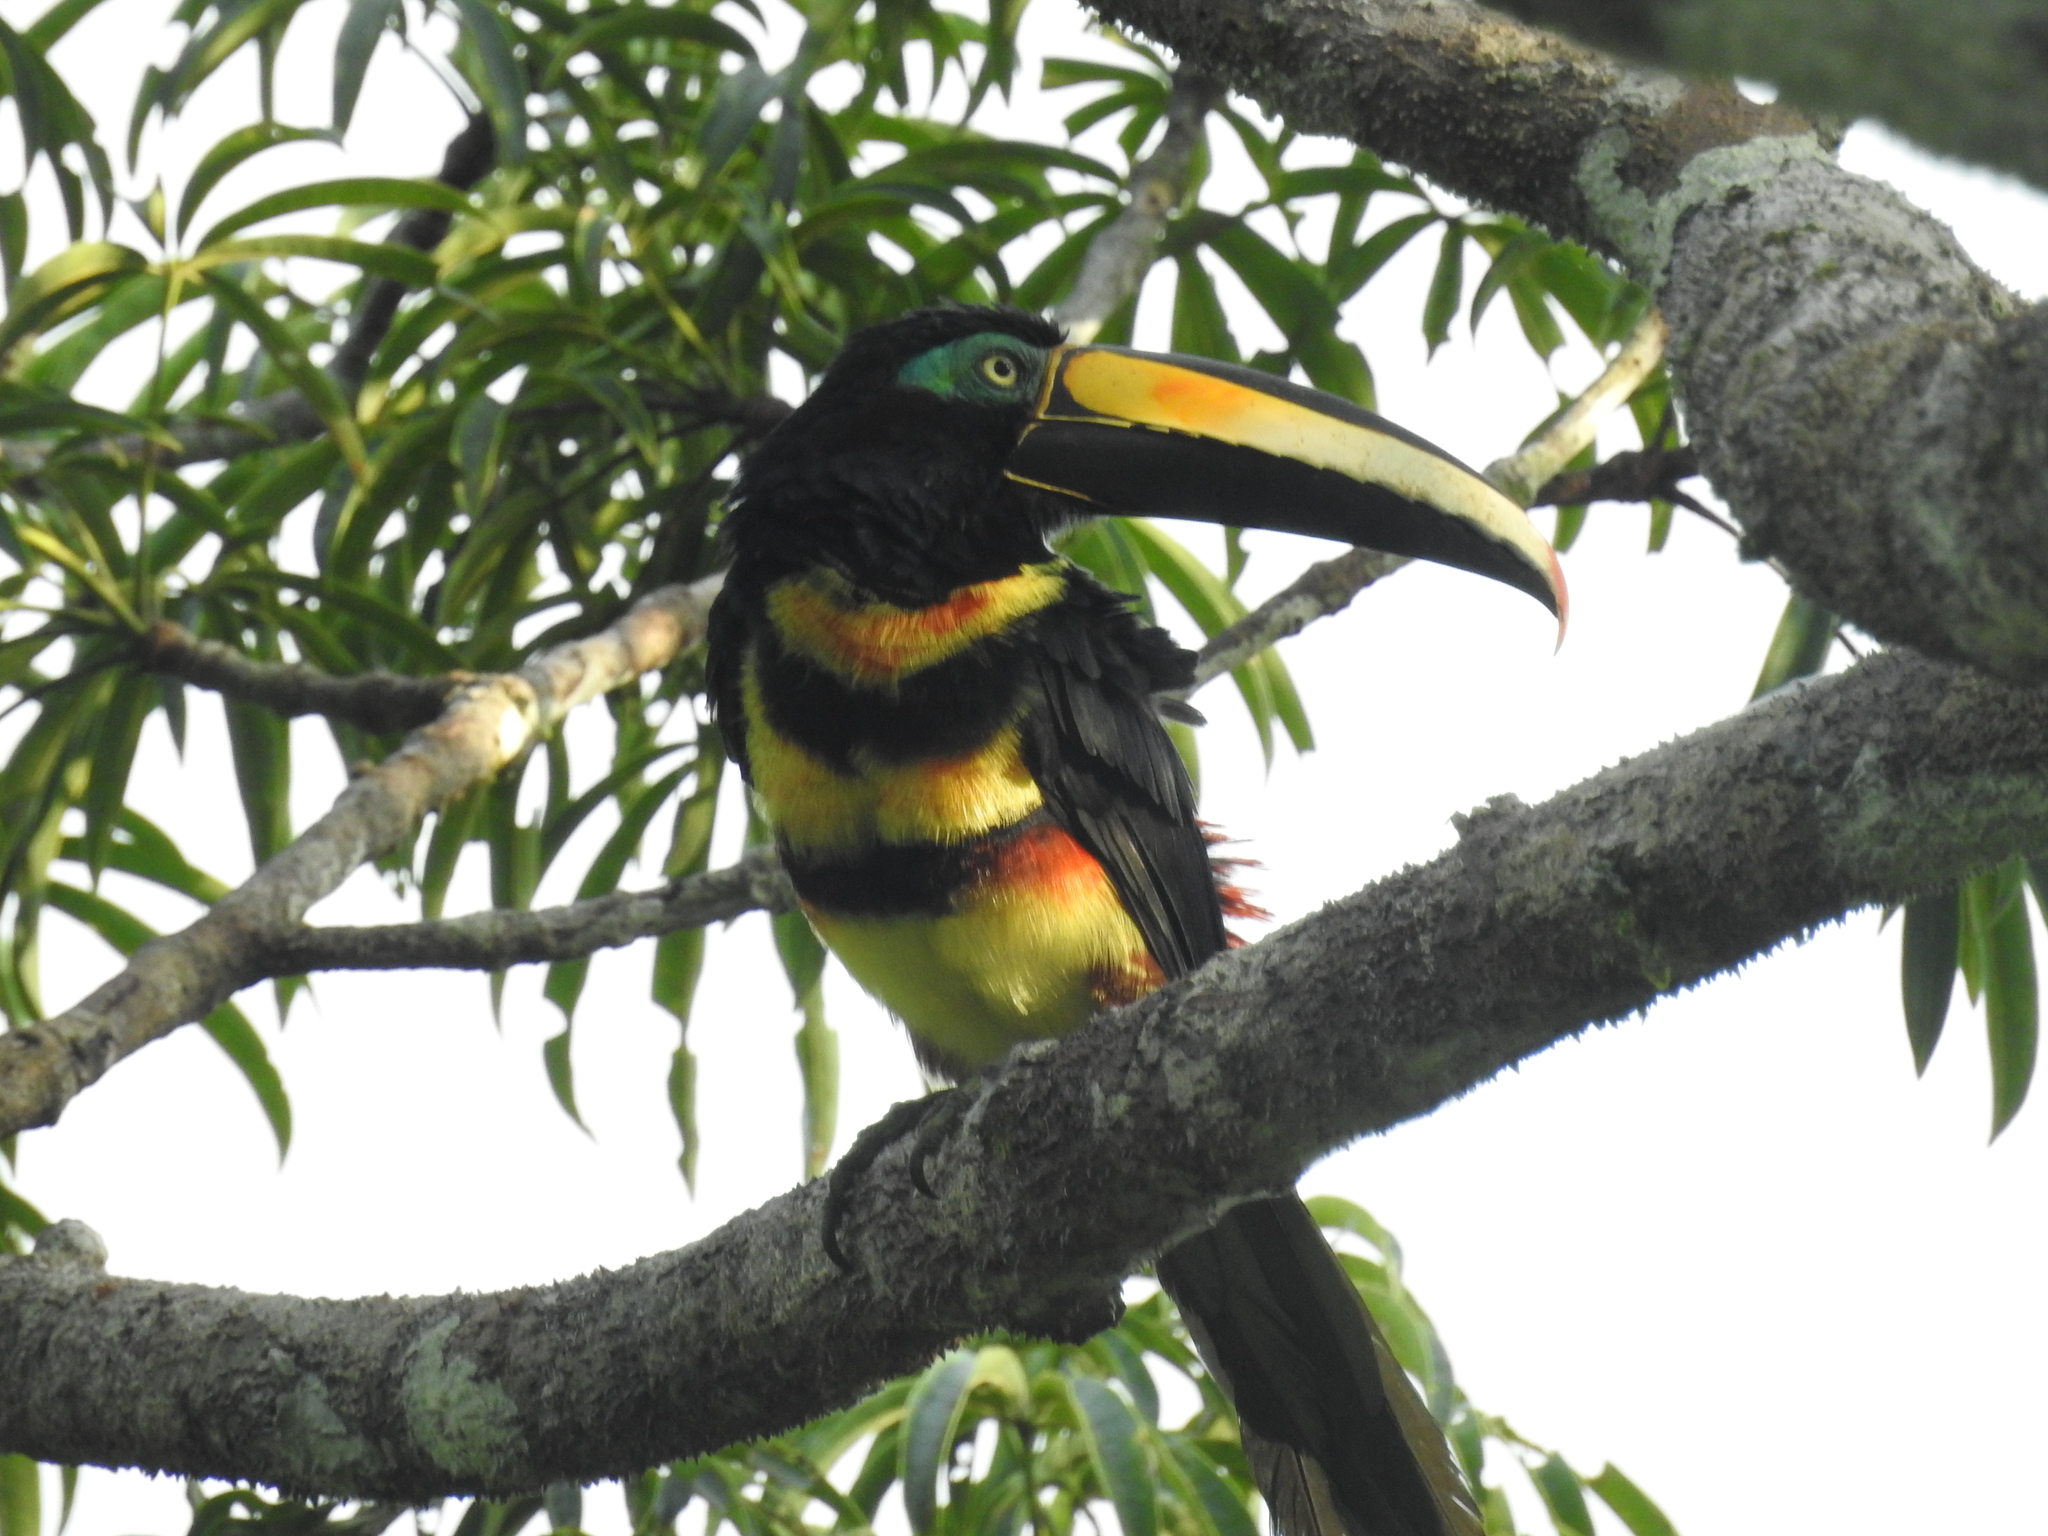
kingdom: Animalia
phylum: Chordata
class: Aves
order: Piciformes
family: Ramphastidae
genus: Pteroglossus
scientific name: Pteroglossus pluricinctus
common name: Many-banded aracari
